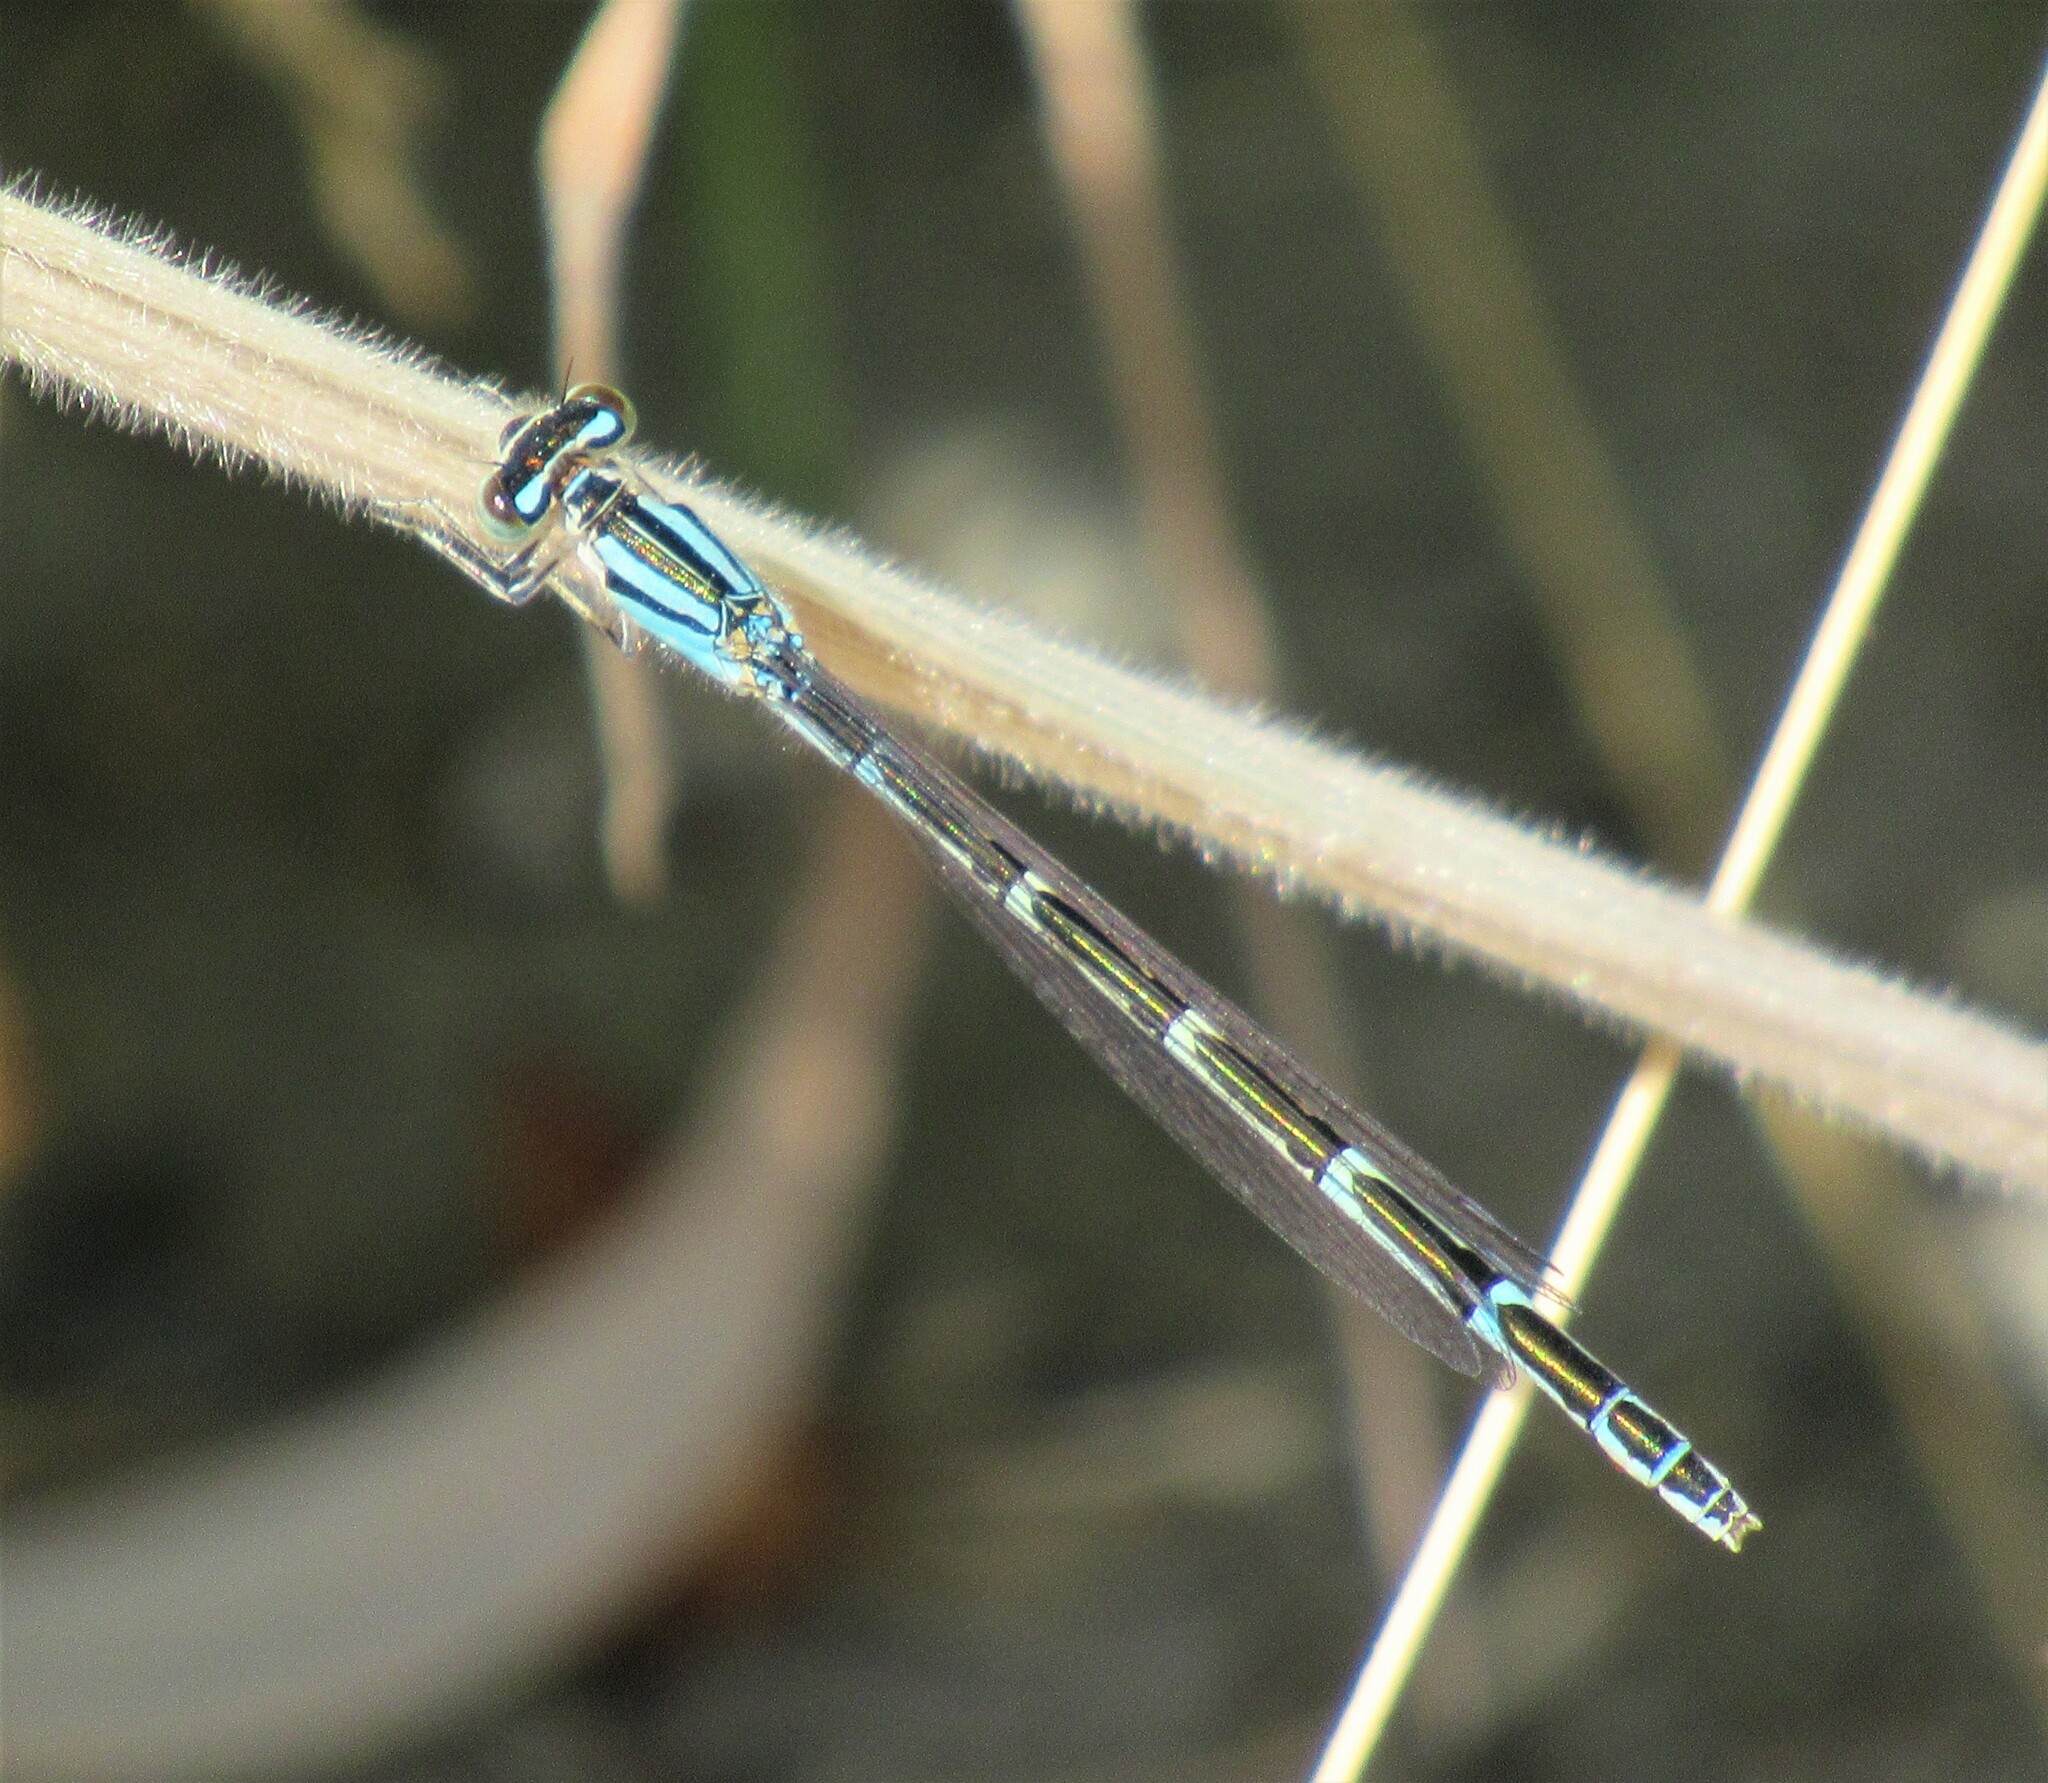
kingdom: Animalia
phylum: Arthropoda
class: Insecta
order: Odonata
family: Coenagrionidae
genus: Enallagma
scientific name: Enallagma carunculatum
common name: Tule bluet
